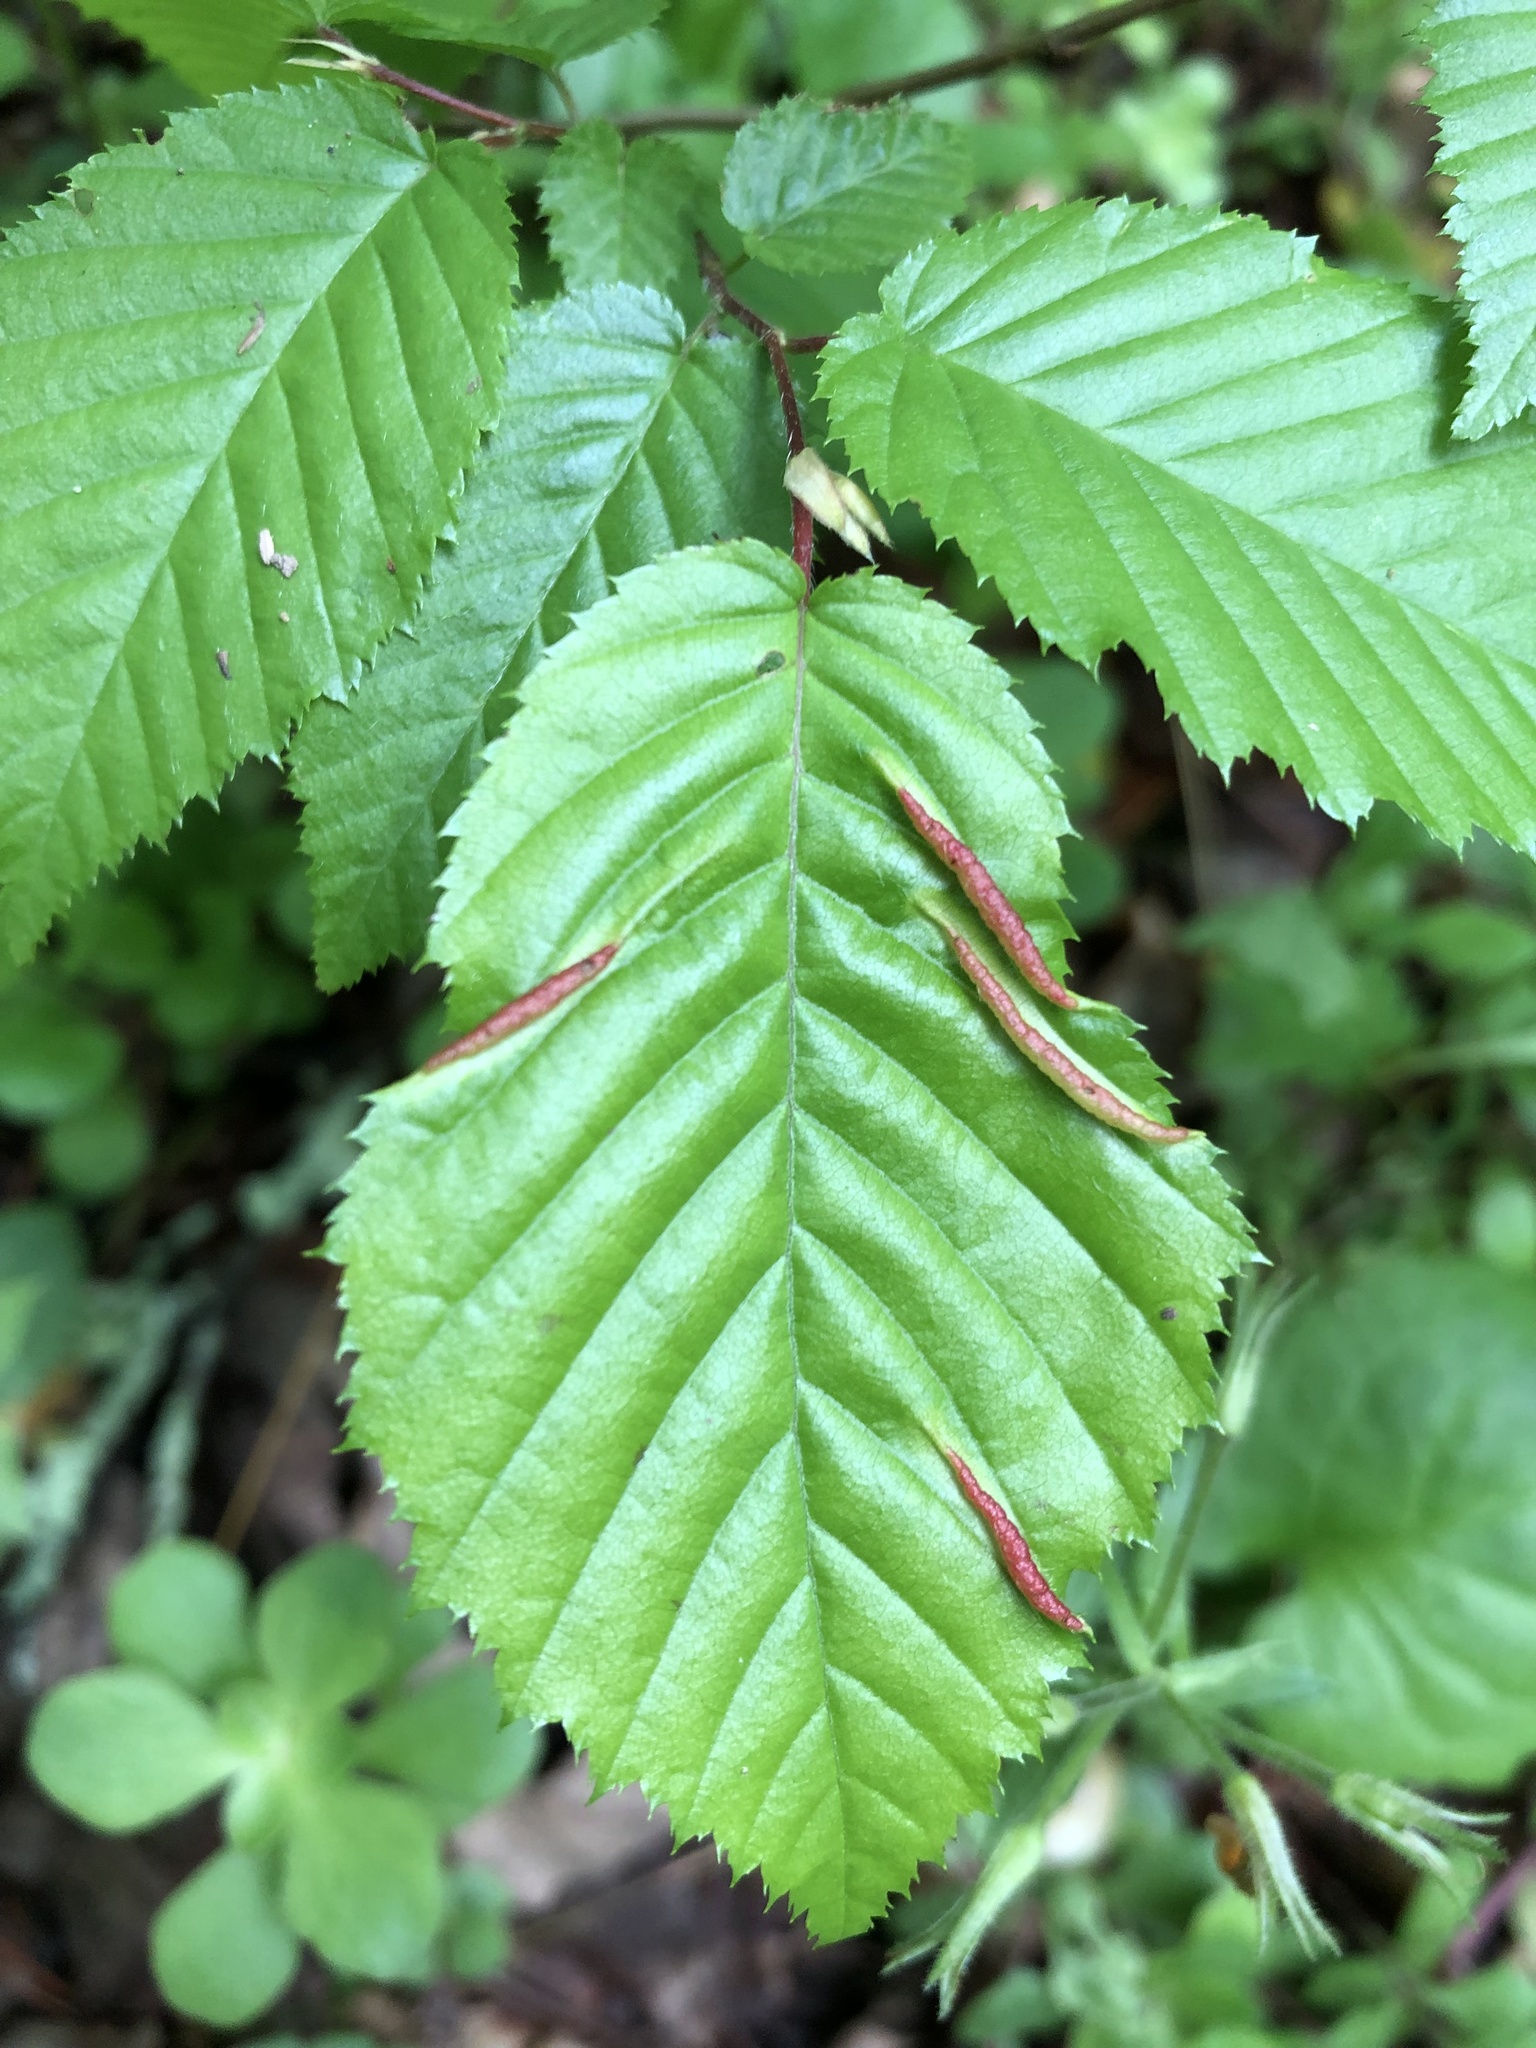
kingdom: Animalia
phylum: Arthropoda
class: Insecta
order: Diptera
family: Cecidomyiidae
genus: Dasineura
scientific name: Dasineura pudibunda
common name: Hornbeam leaf gall midge
